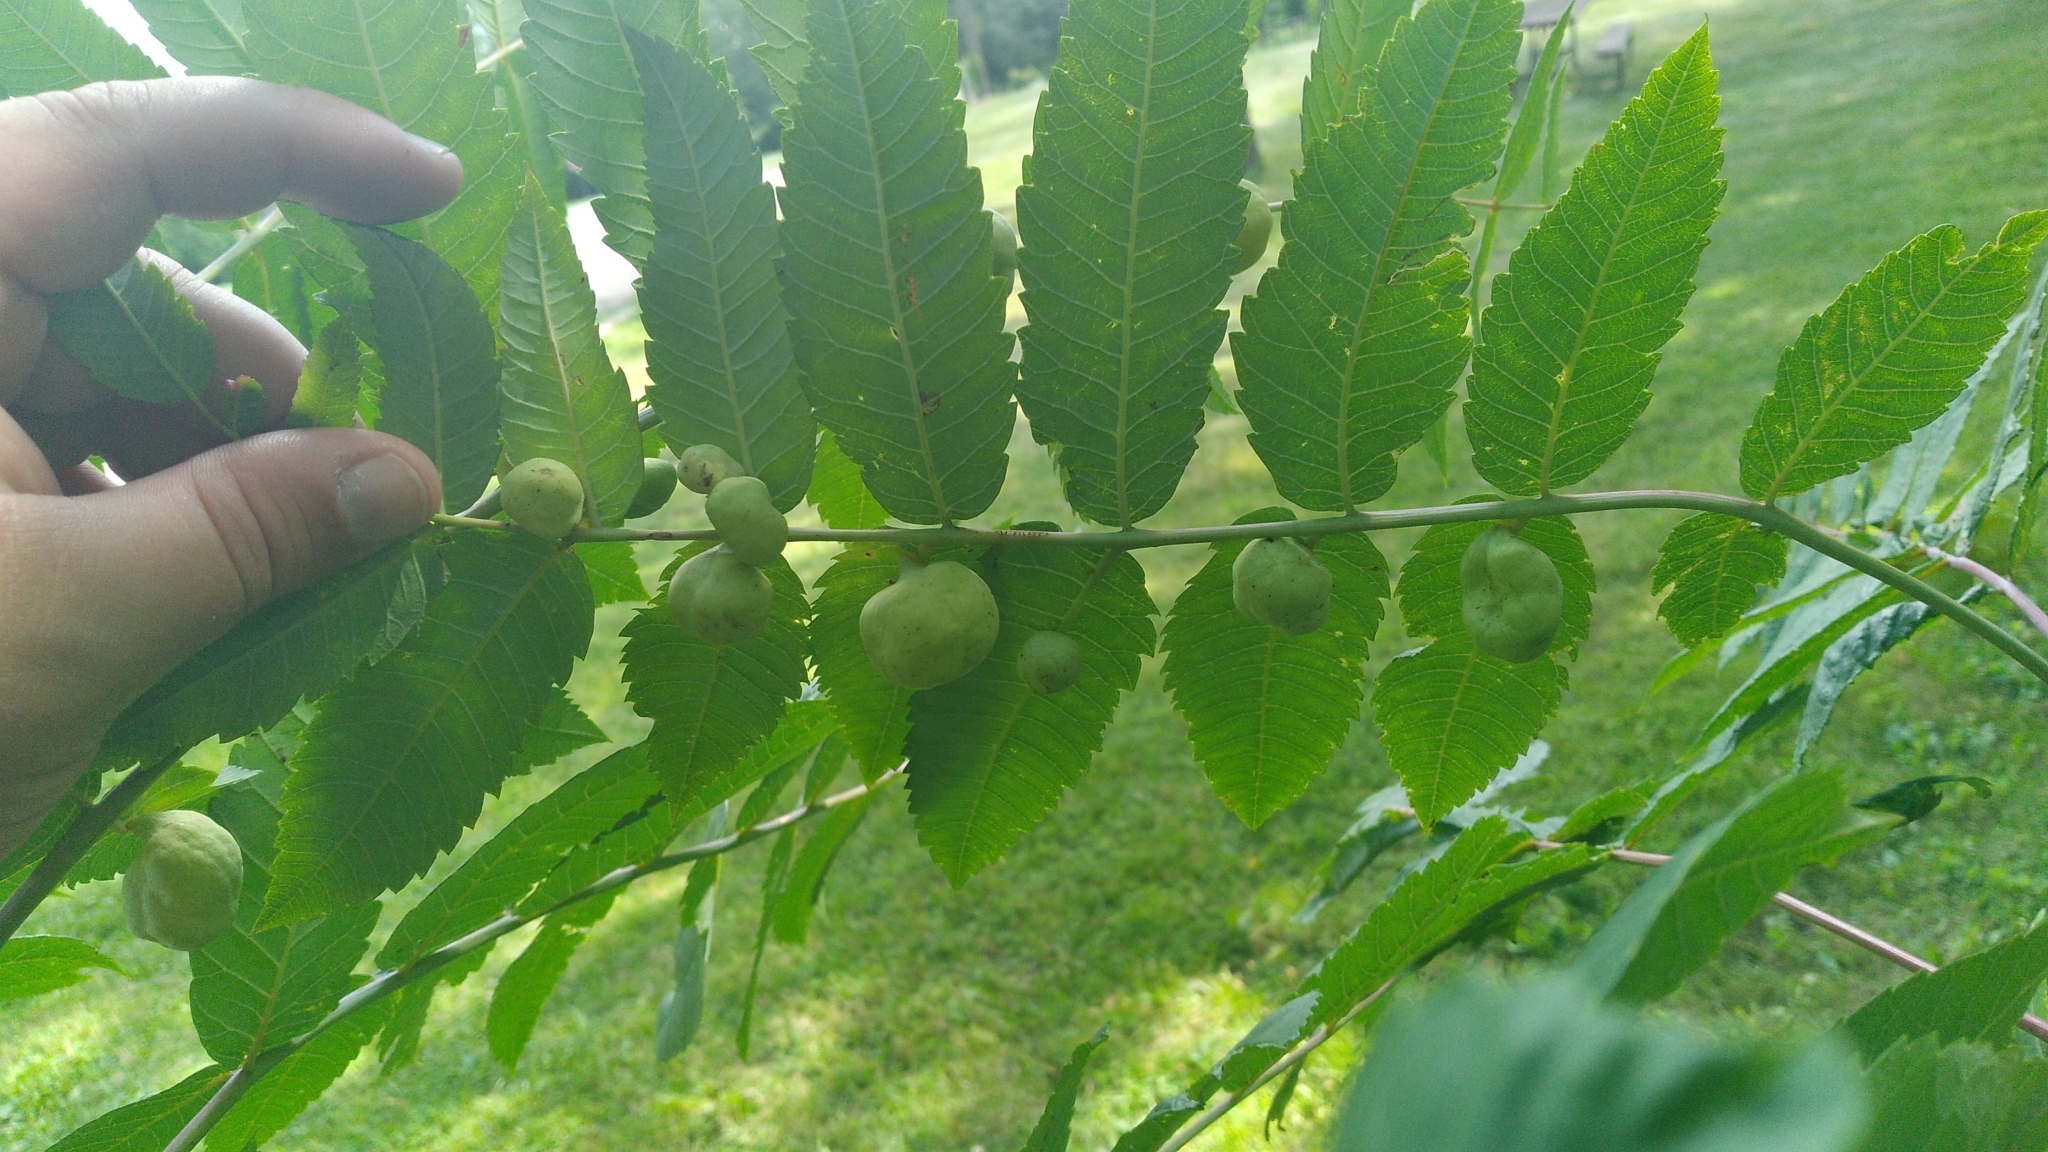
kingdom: Animalia
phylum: Arthropoda
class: Insecta
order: Hemiptera
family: Aphididae
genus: Melaphis
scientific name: Melaphis rhois
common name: Sumac gall aphid
